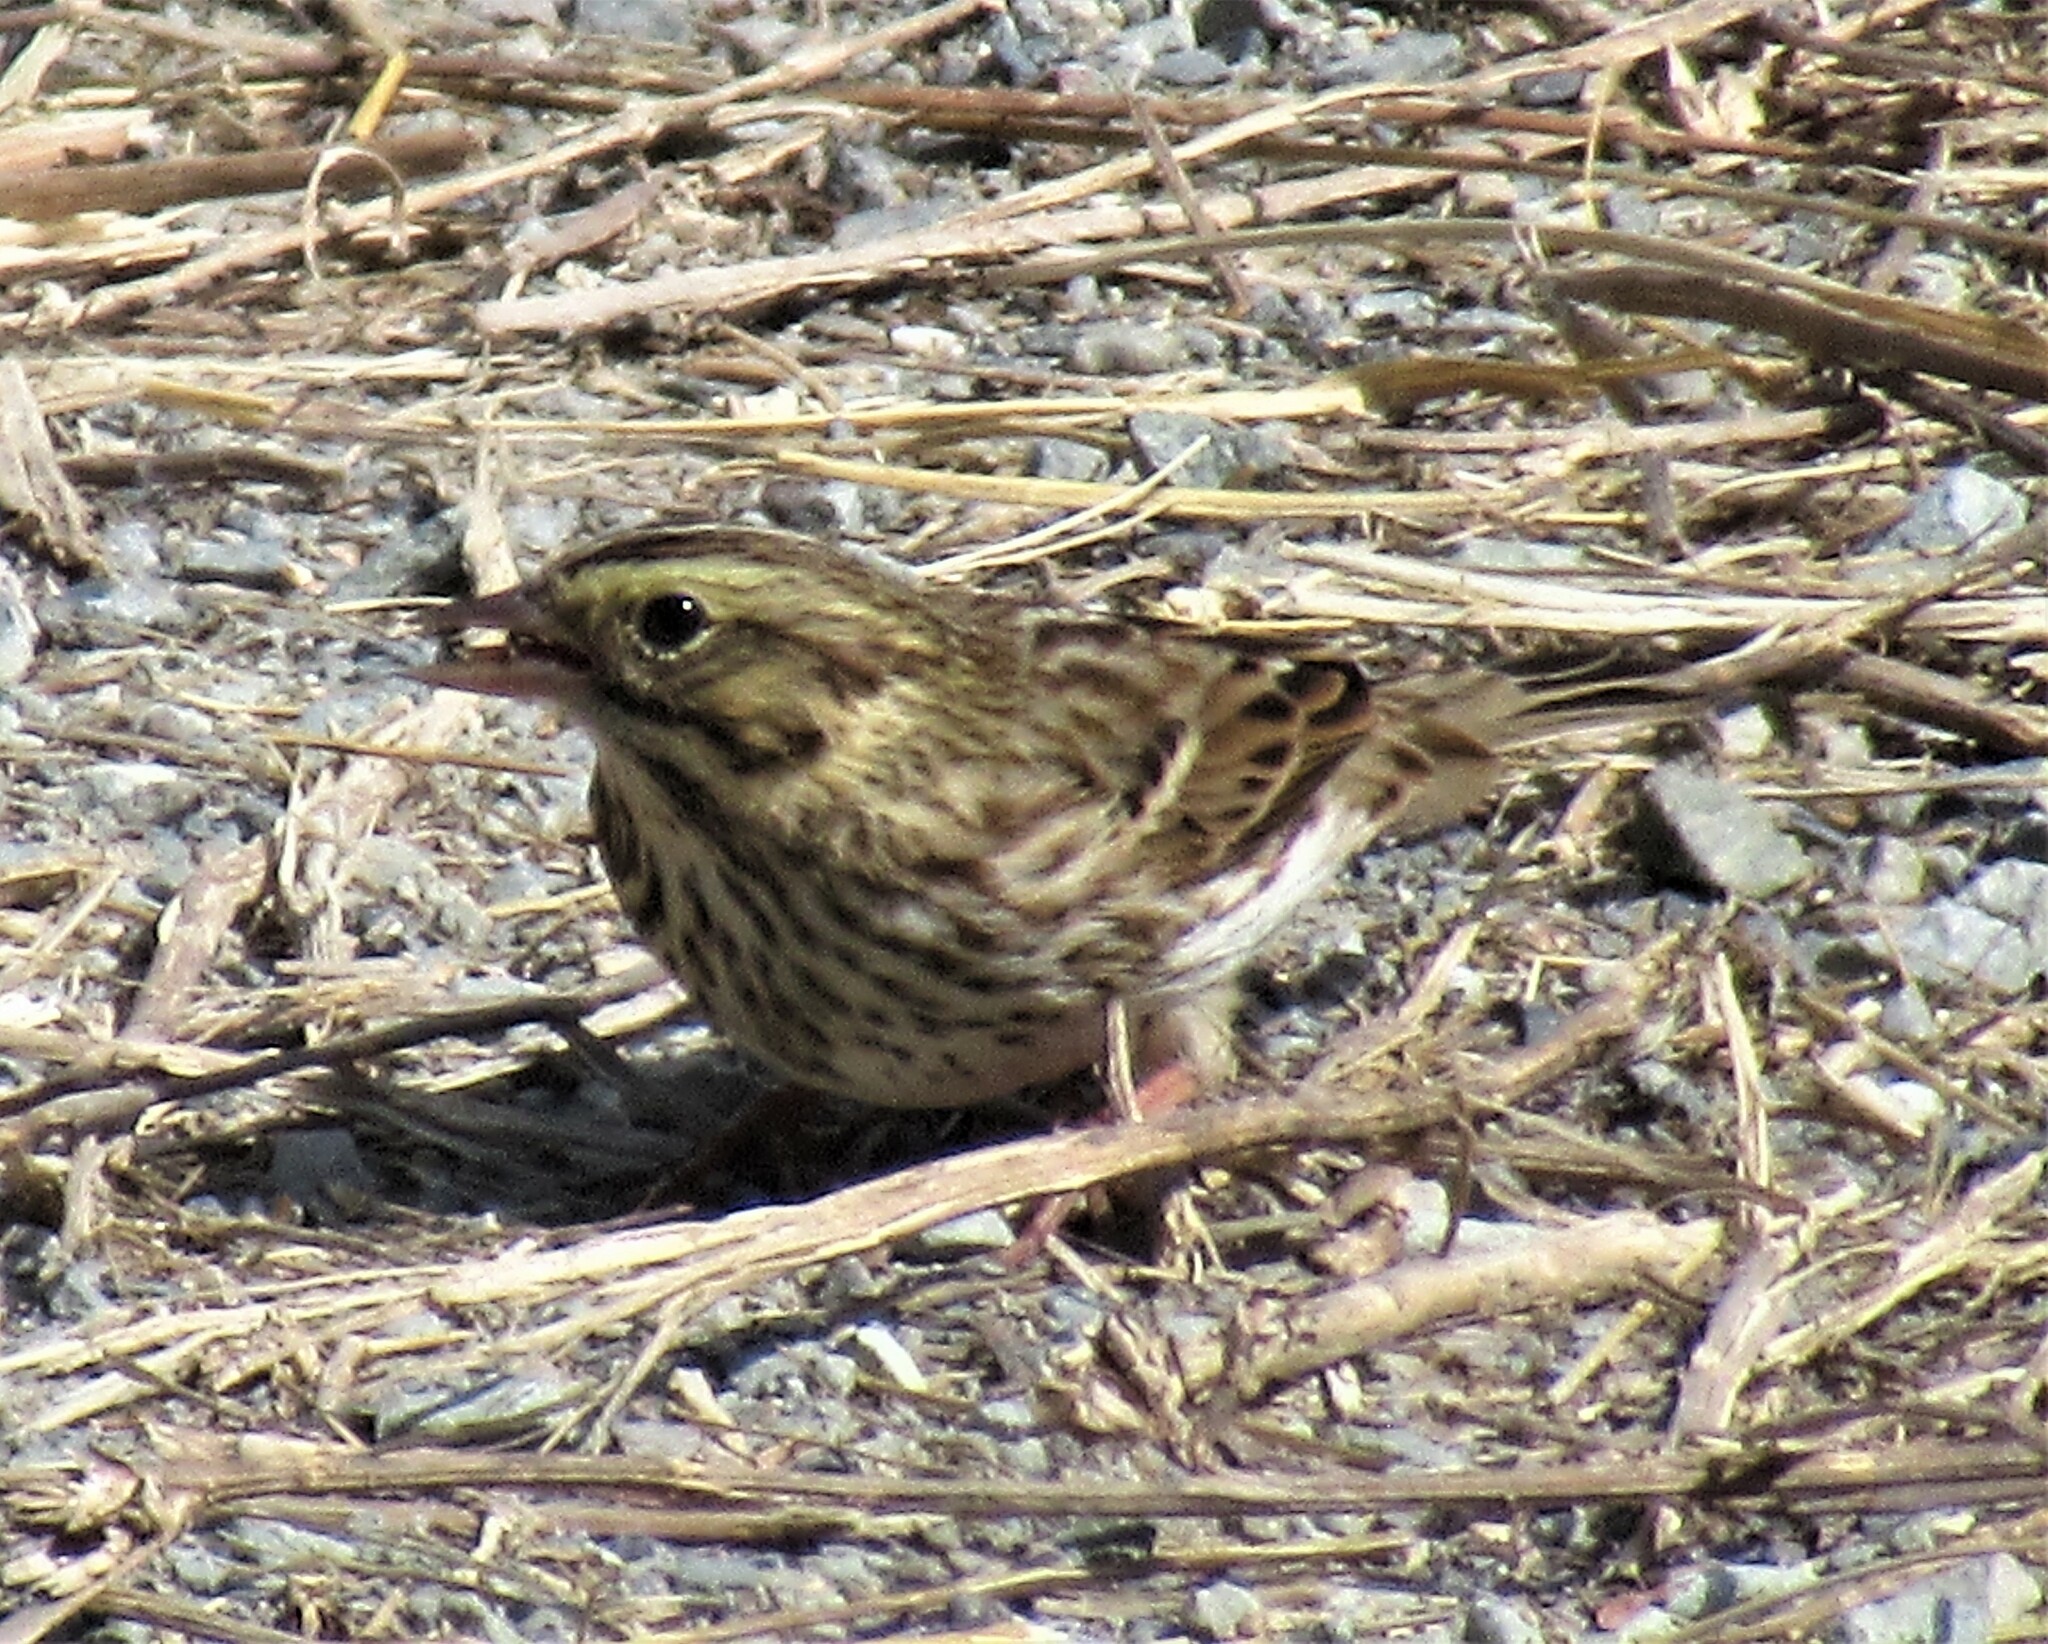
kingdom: Animalia
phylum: Chordata
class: Aves
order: Passeriformes
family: Passerellidae
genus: Passerculus
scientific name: Passerculus sandwichensis
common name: Savannah sparrow
